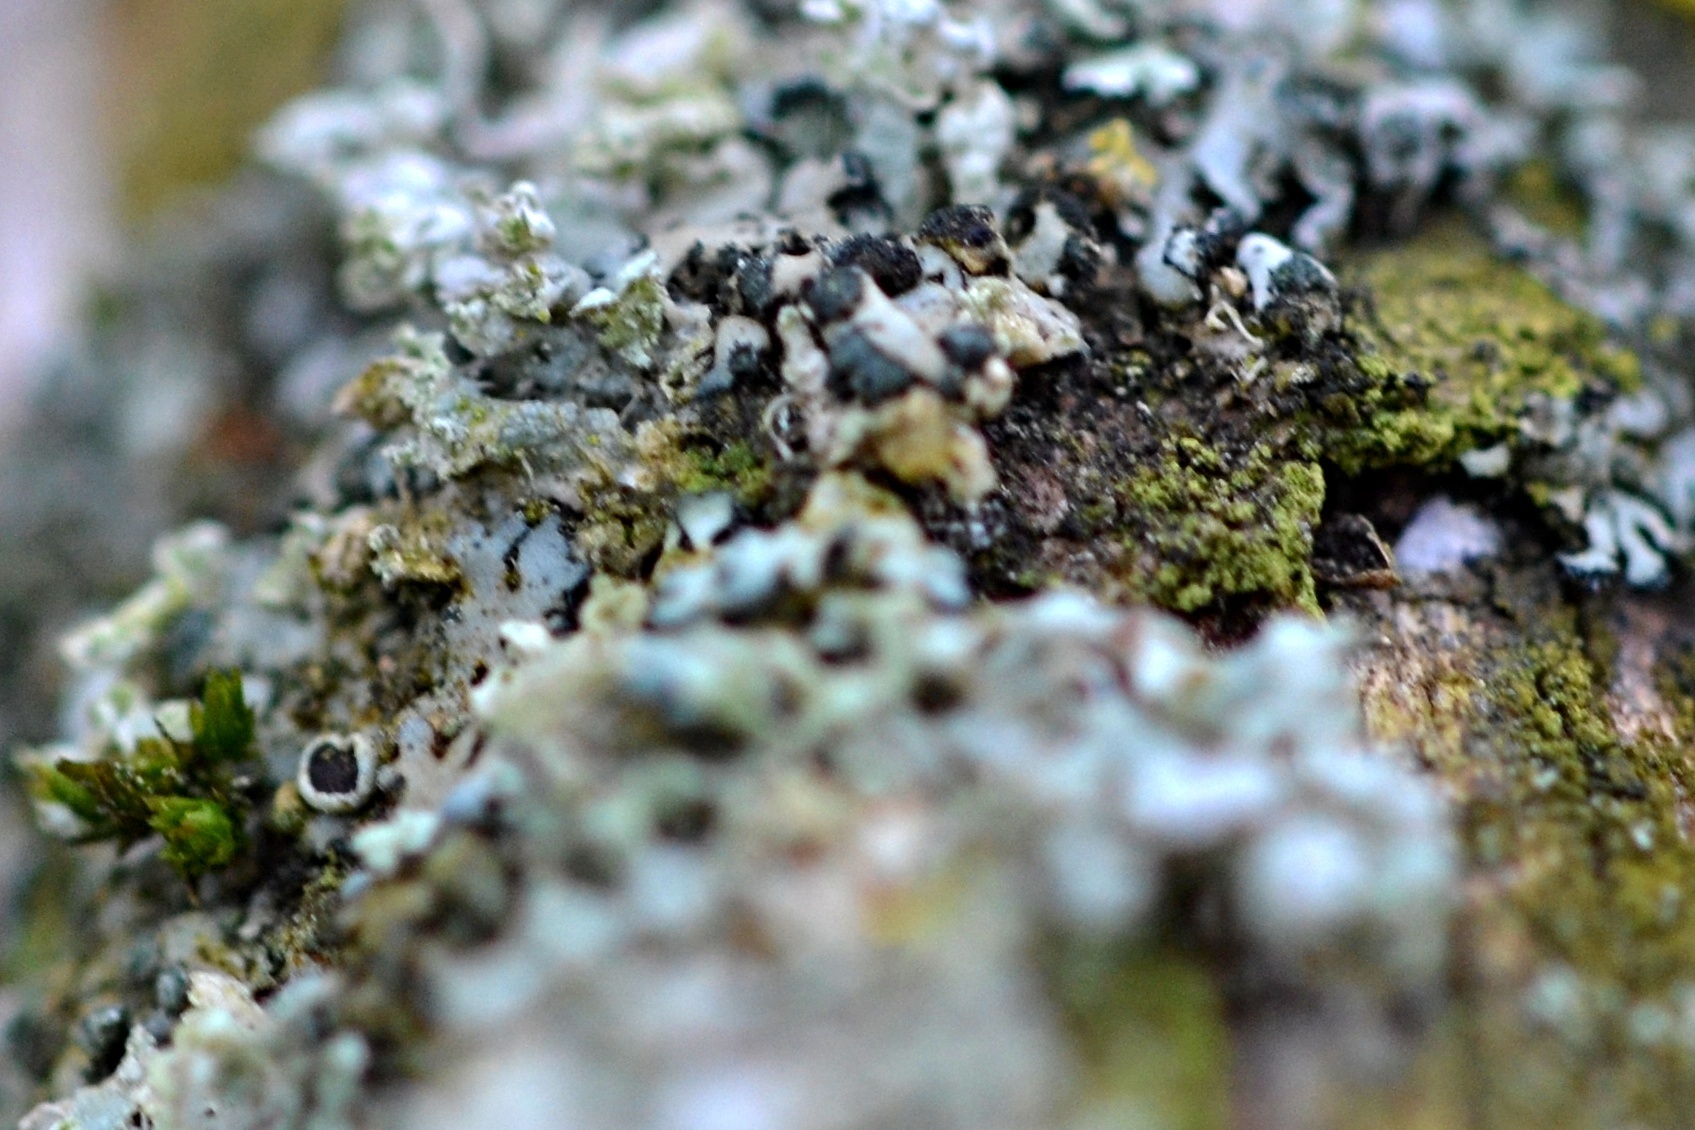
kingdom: Fungi
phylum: Ascomycota
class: Lecanoromycetes
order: Caliciales
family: Physciaceae
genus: Physcia
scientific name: Physcia adscendens
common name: Hooded rosette lichen
